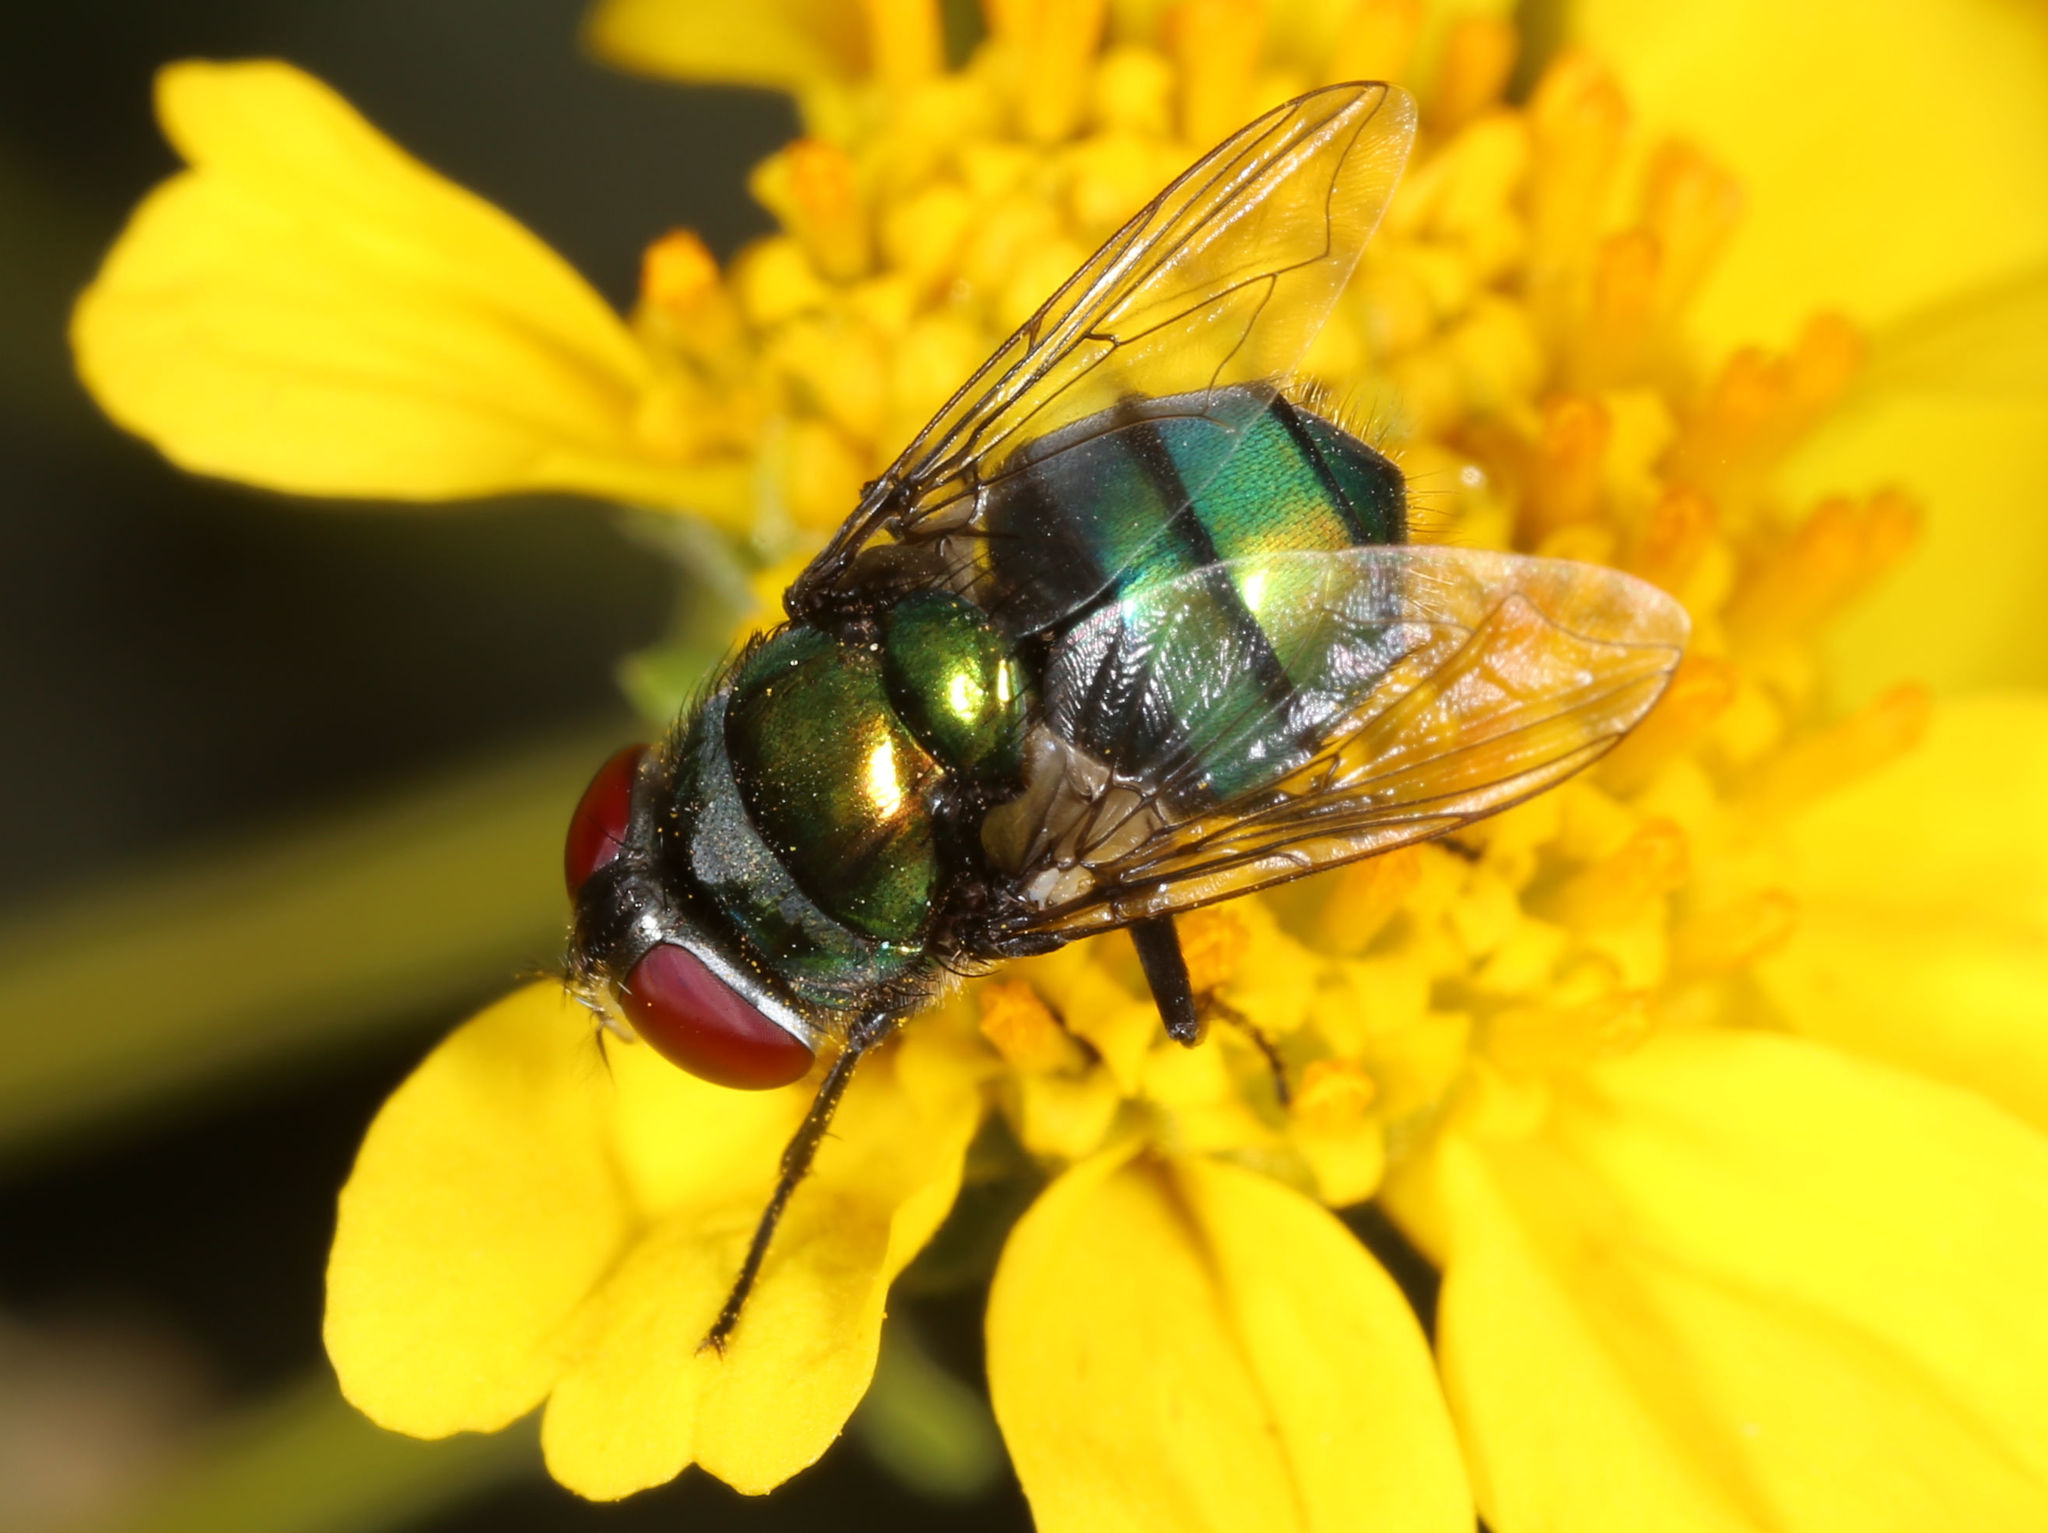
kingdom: Animalia
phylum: Arthropoda
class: Insecta
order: Diptera
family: Calliphoridae
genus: Chrysomya
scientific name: Chrysomya rufifacies
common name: Blow fly
